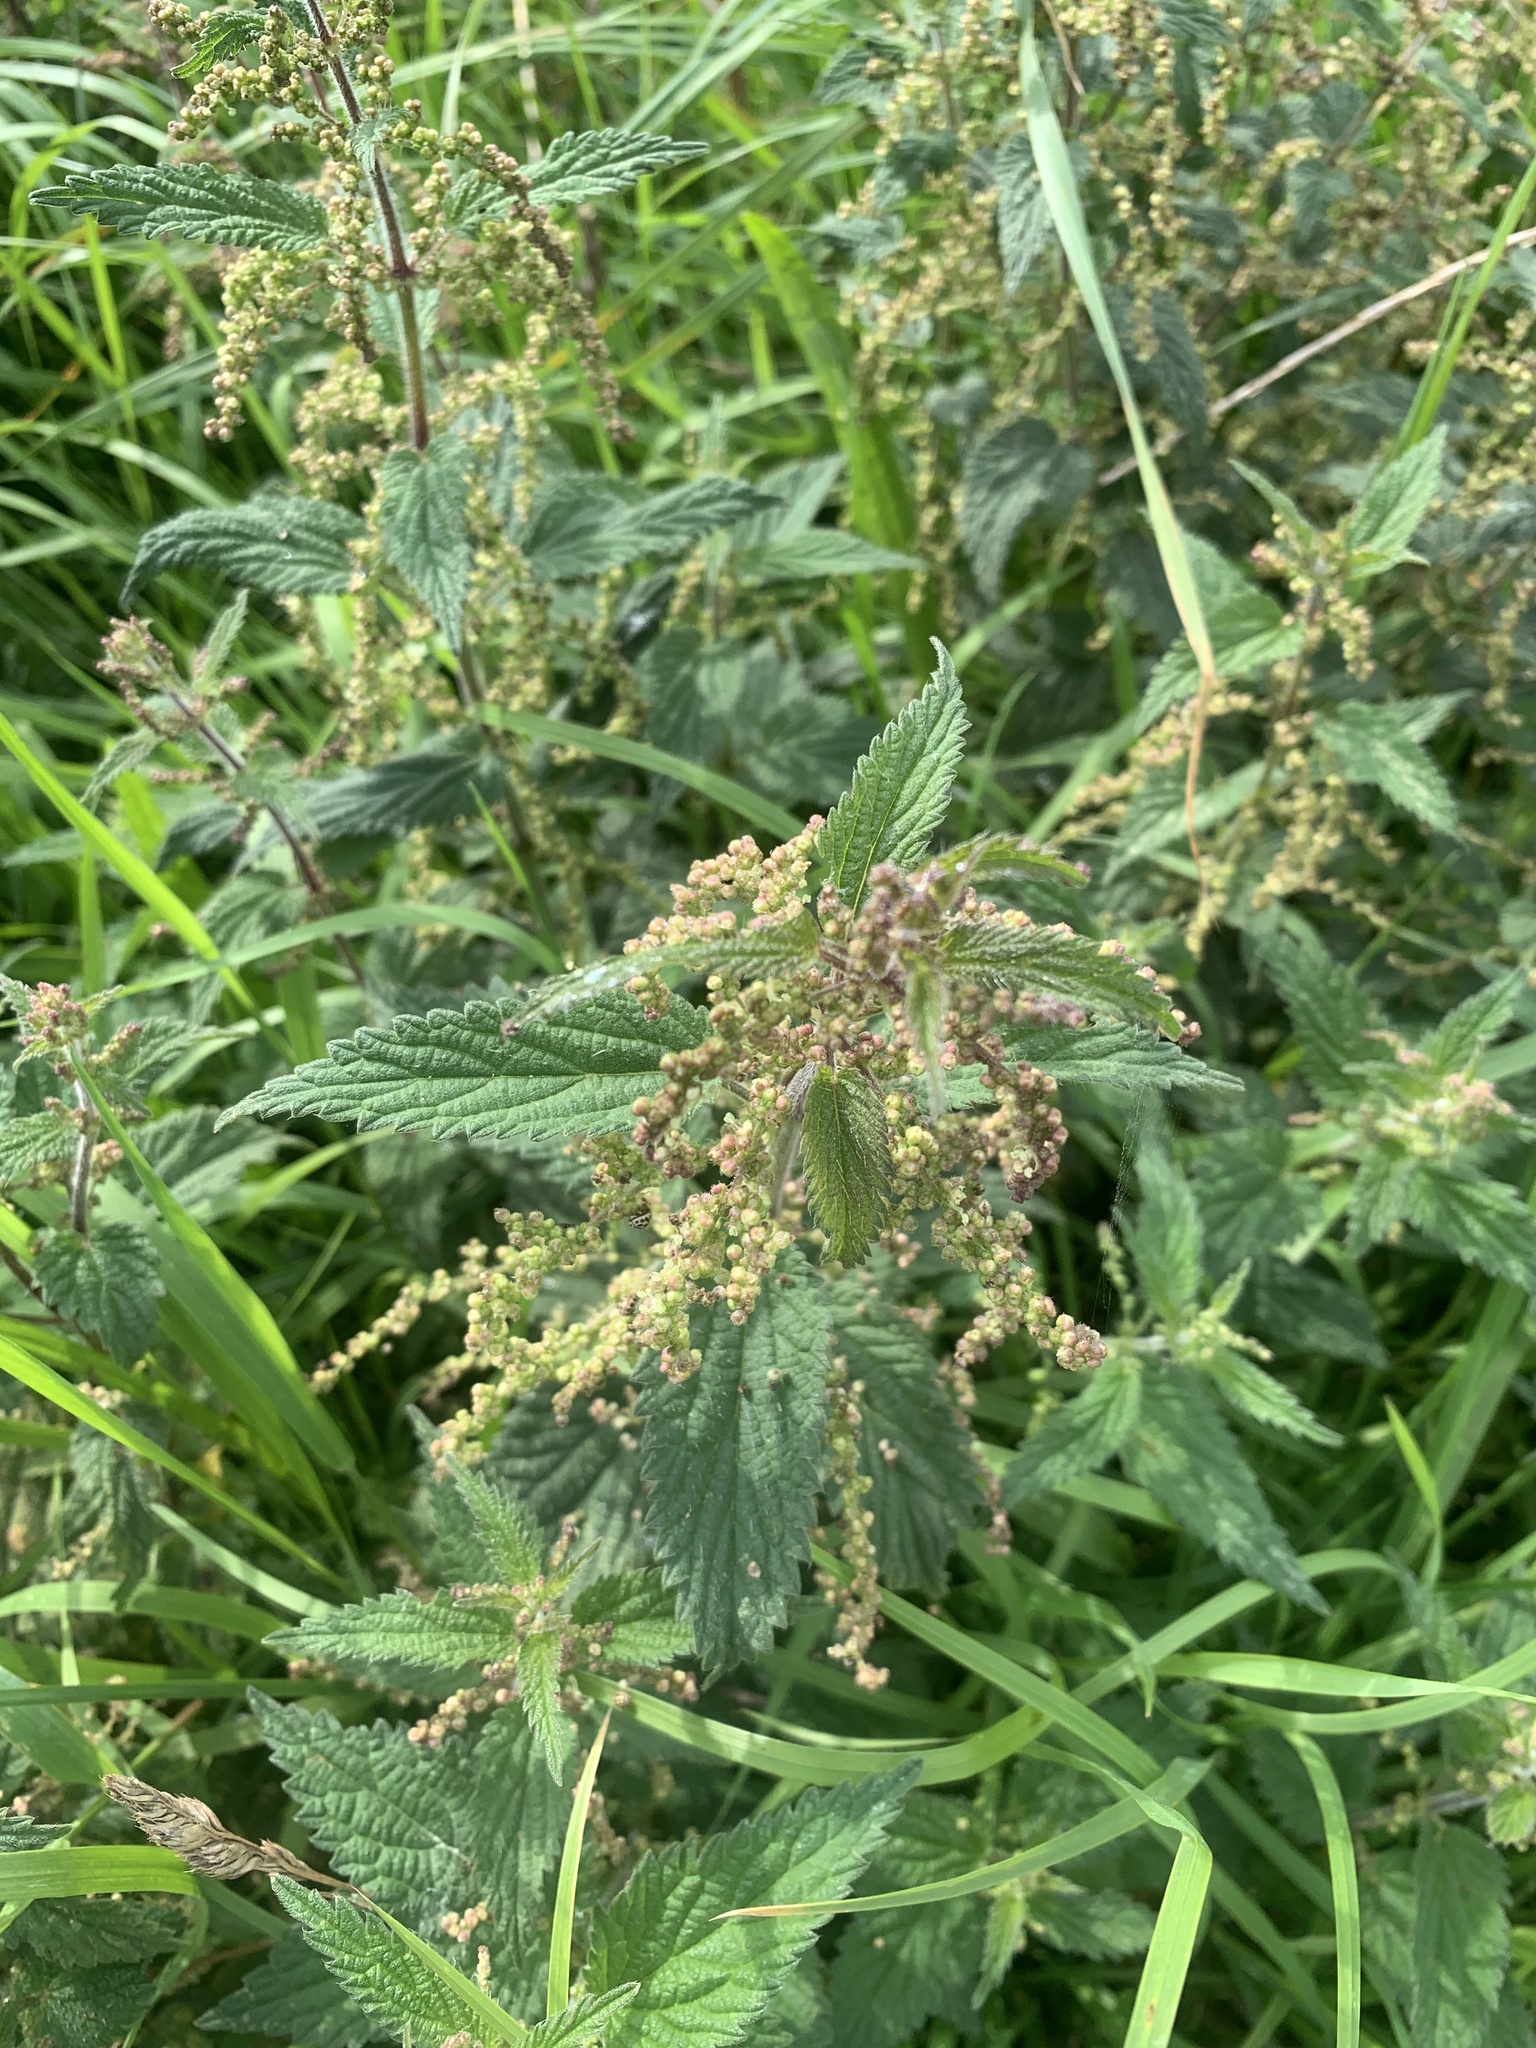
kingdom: Plantae
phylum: Tracheophyta
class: Magnoliopsida
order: Rosales
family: Urticaceae
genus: Urtica
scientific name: Urtica dioica
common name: Common nettle
